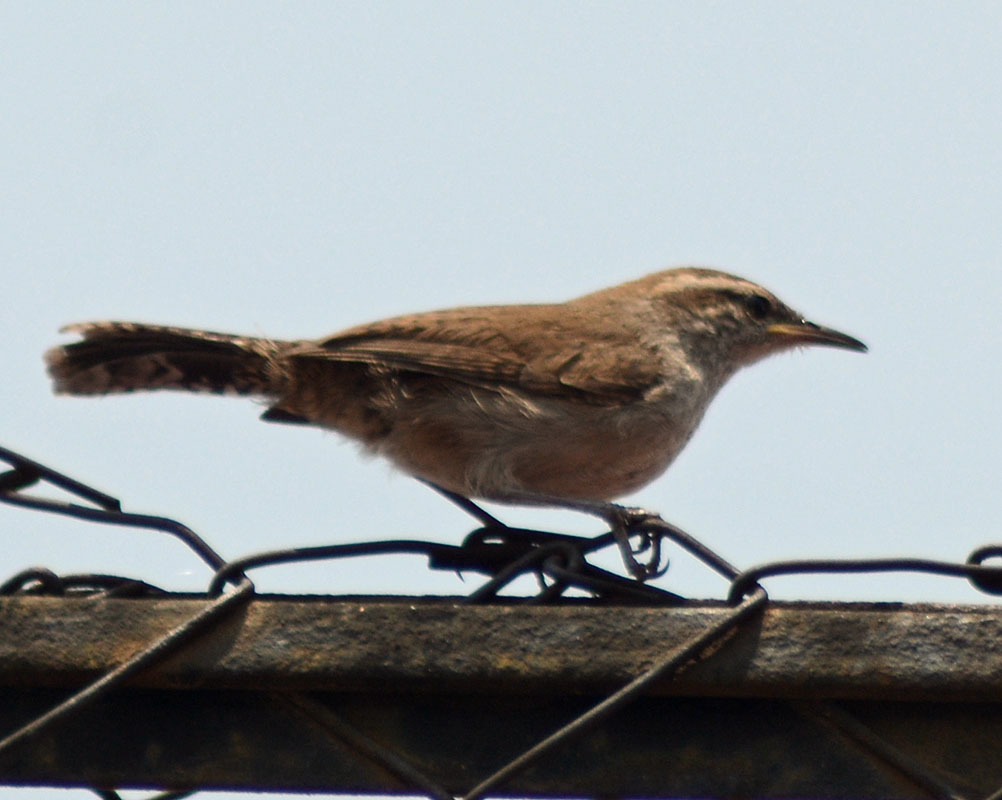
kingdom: Animalia
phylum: Chordata
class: Aves
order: Passeriformes
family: Troglodytidae
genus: Thryomanes
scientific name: Thryomanes bewickii
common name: Bewick's wren
